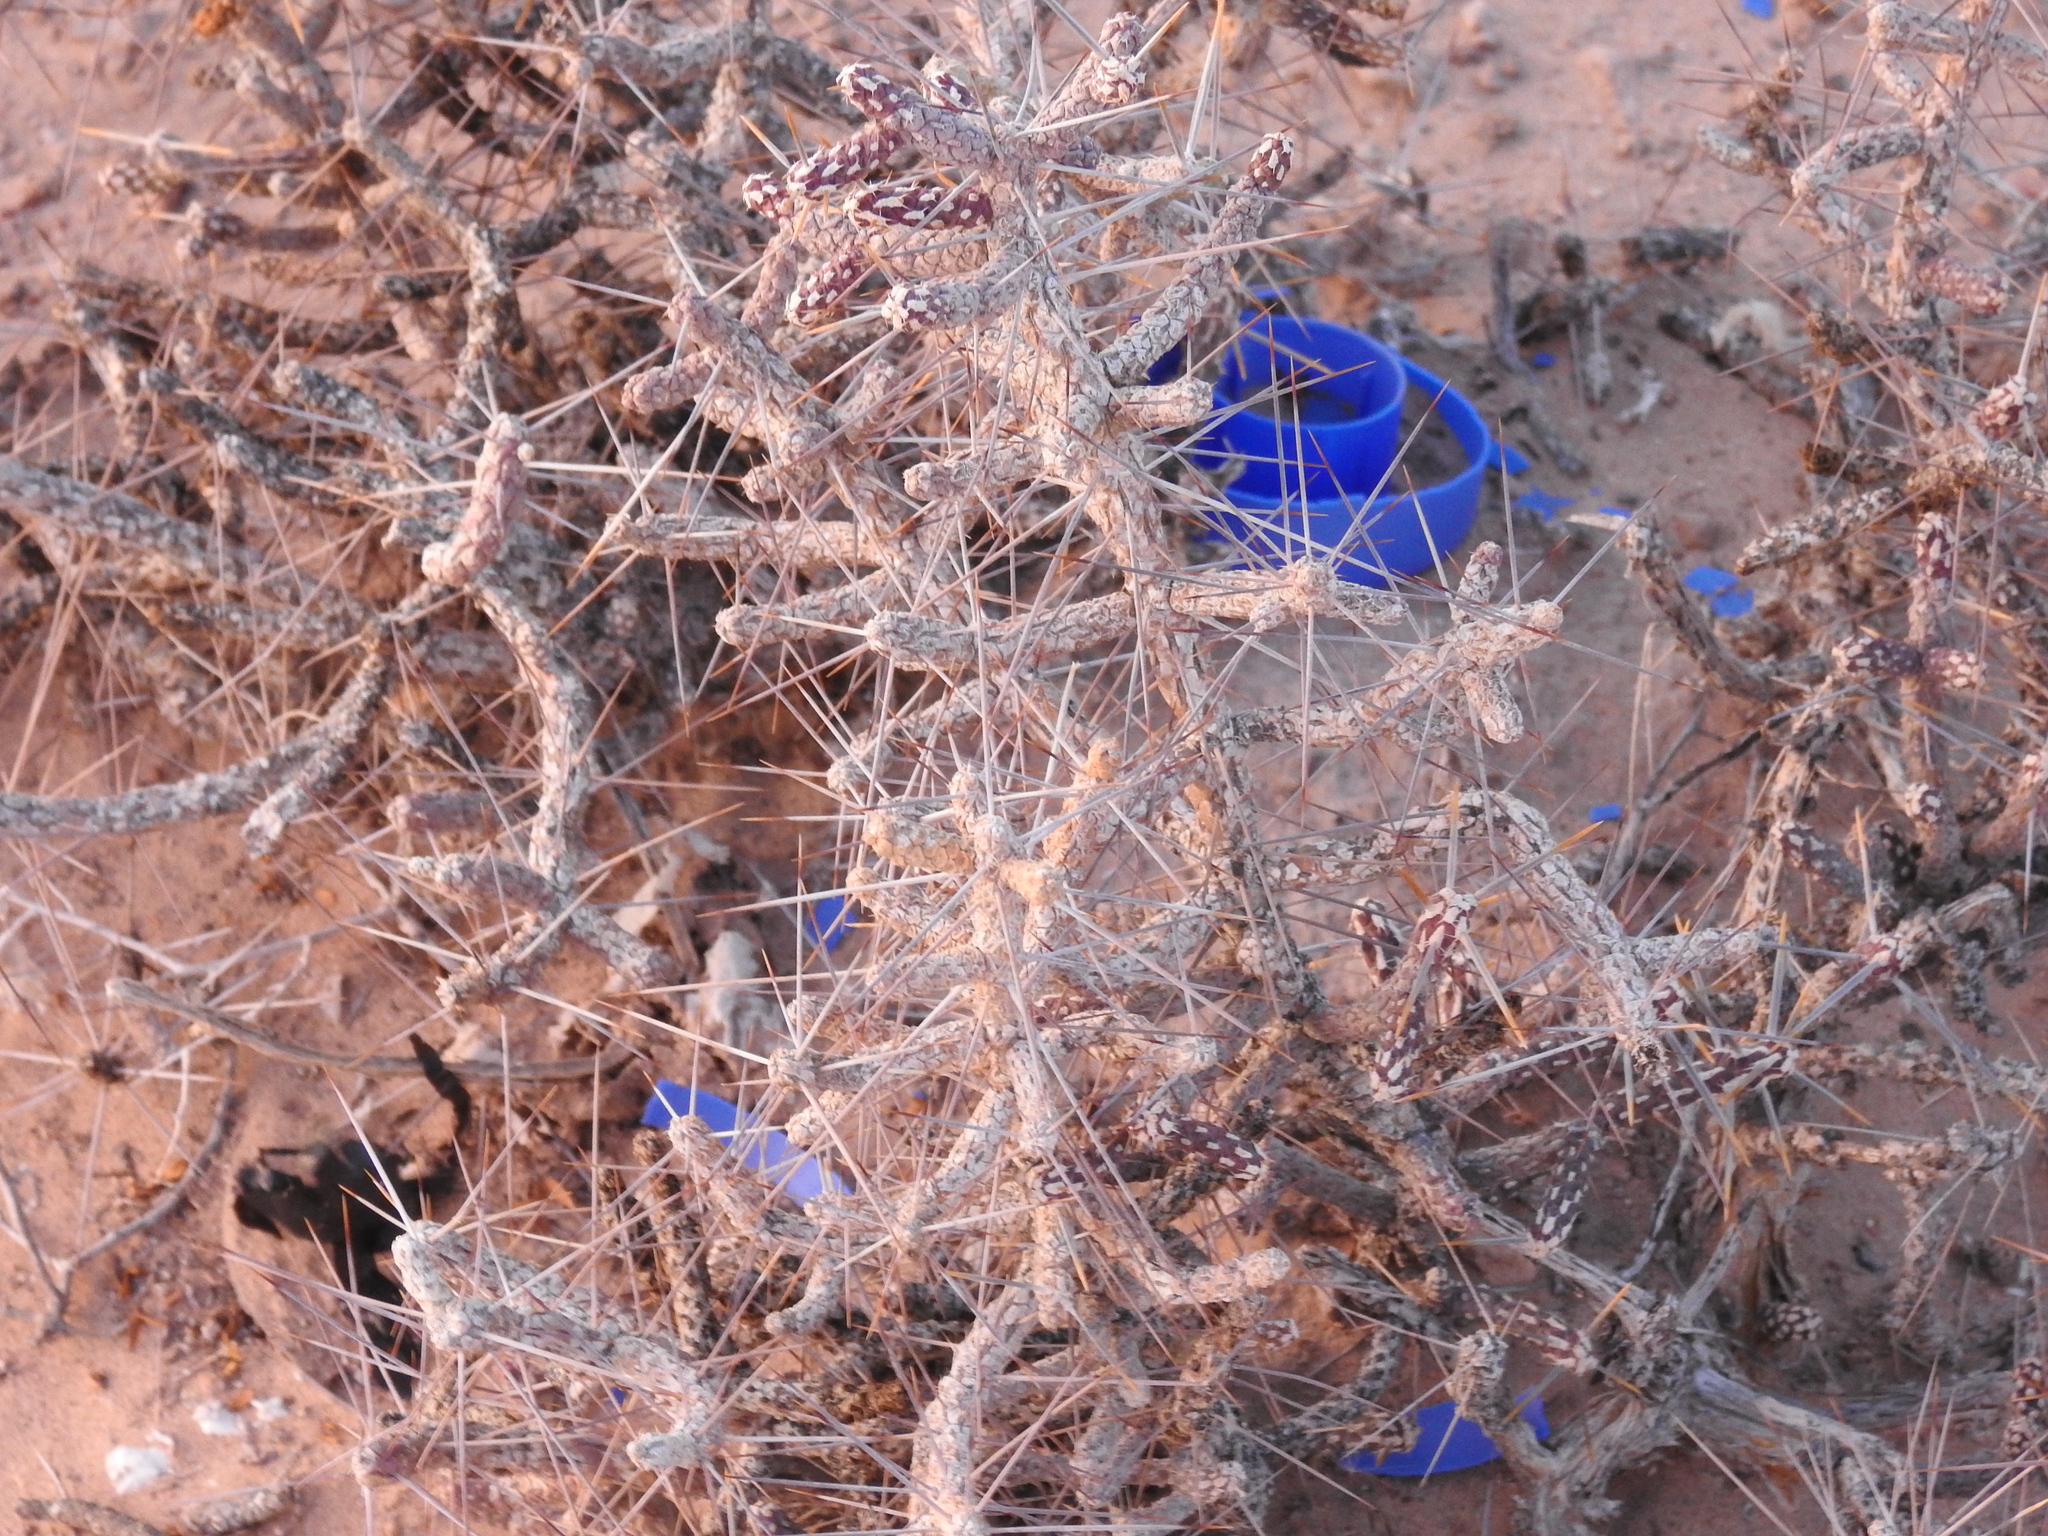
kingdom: Plantae
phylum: Tracheophyta
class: Magnoliopsida
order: Caryophyllales
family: Cactaceae
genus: Cylindropuntia
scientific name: Cylindropuntia ramosissima
